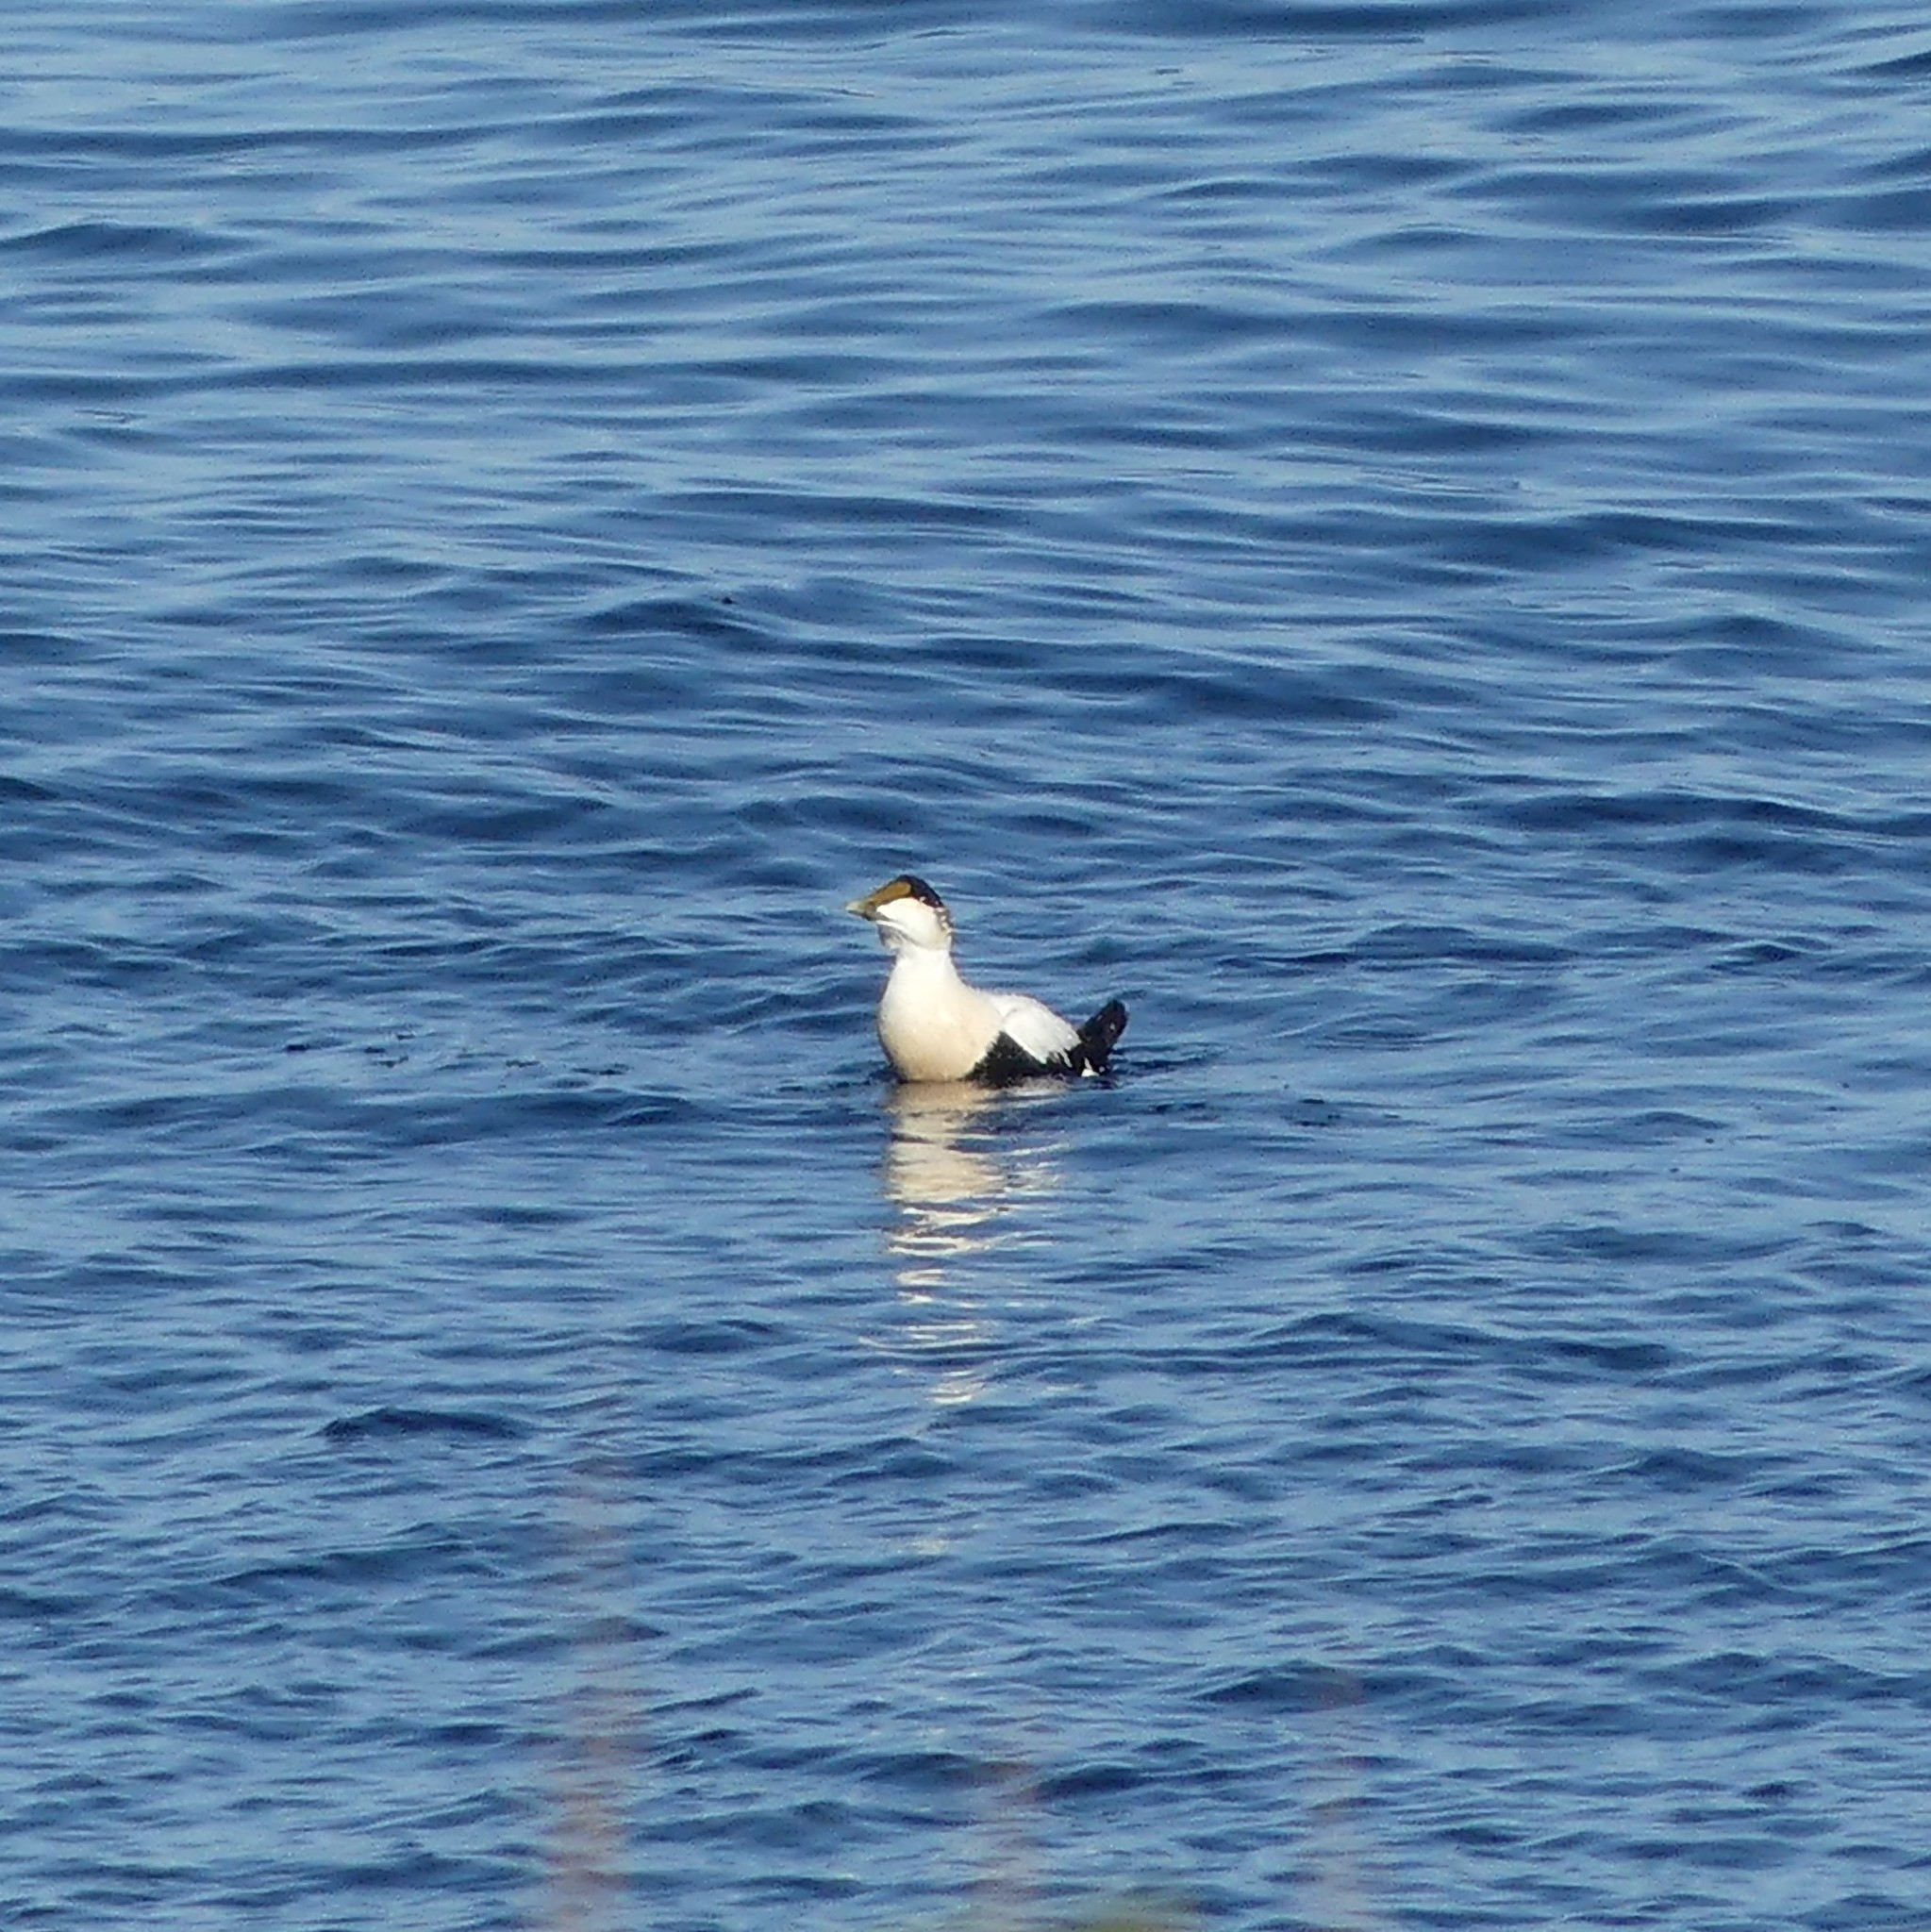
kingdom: Animalia
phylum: Chordata
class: Aves
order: Anseriformes
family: Anatidae
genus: Somateria
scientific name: Somateria mollissima
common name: Common eider
